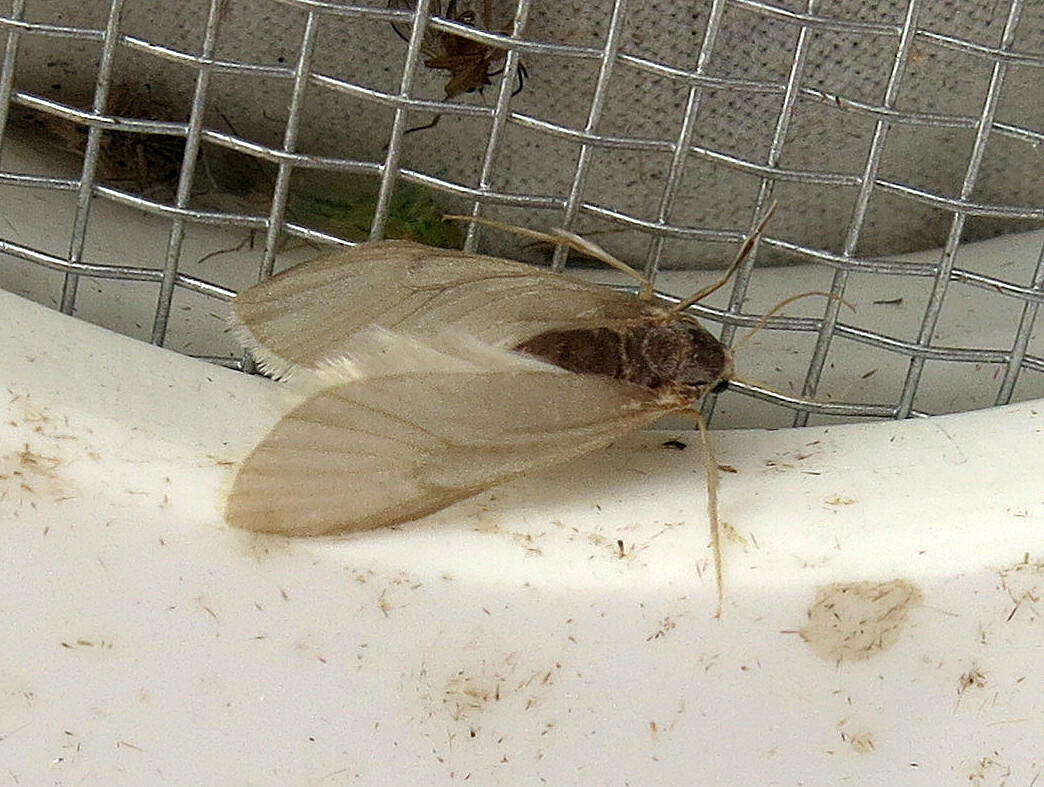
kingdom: Animalia
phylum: Arthropoda
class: Insecta
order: Lepidoptera
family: Crambidae
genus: Acentria
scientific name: Acentria ephemerella
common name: European water moth
